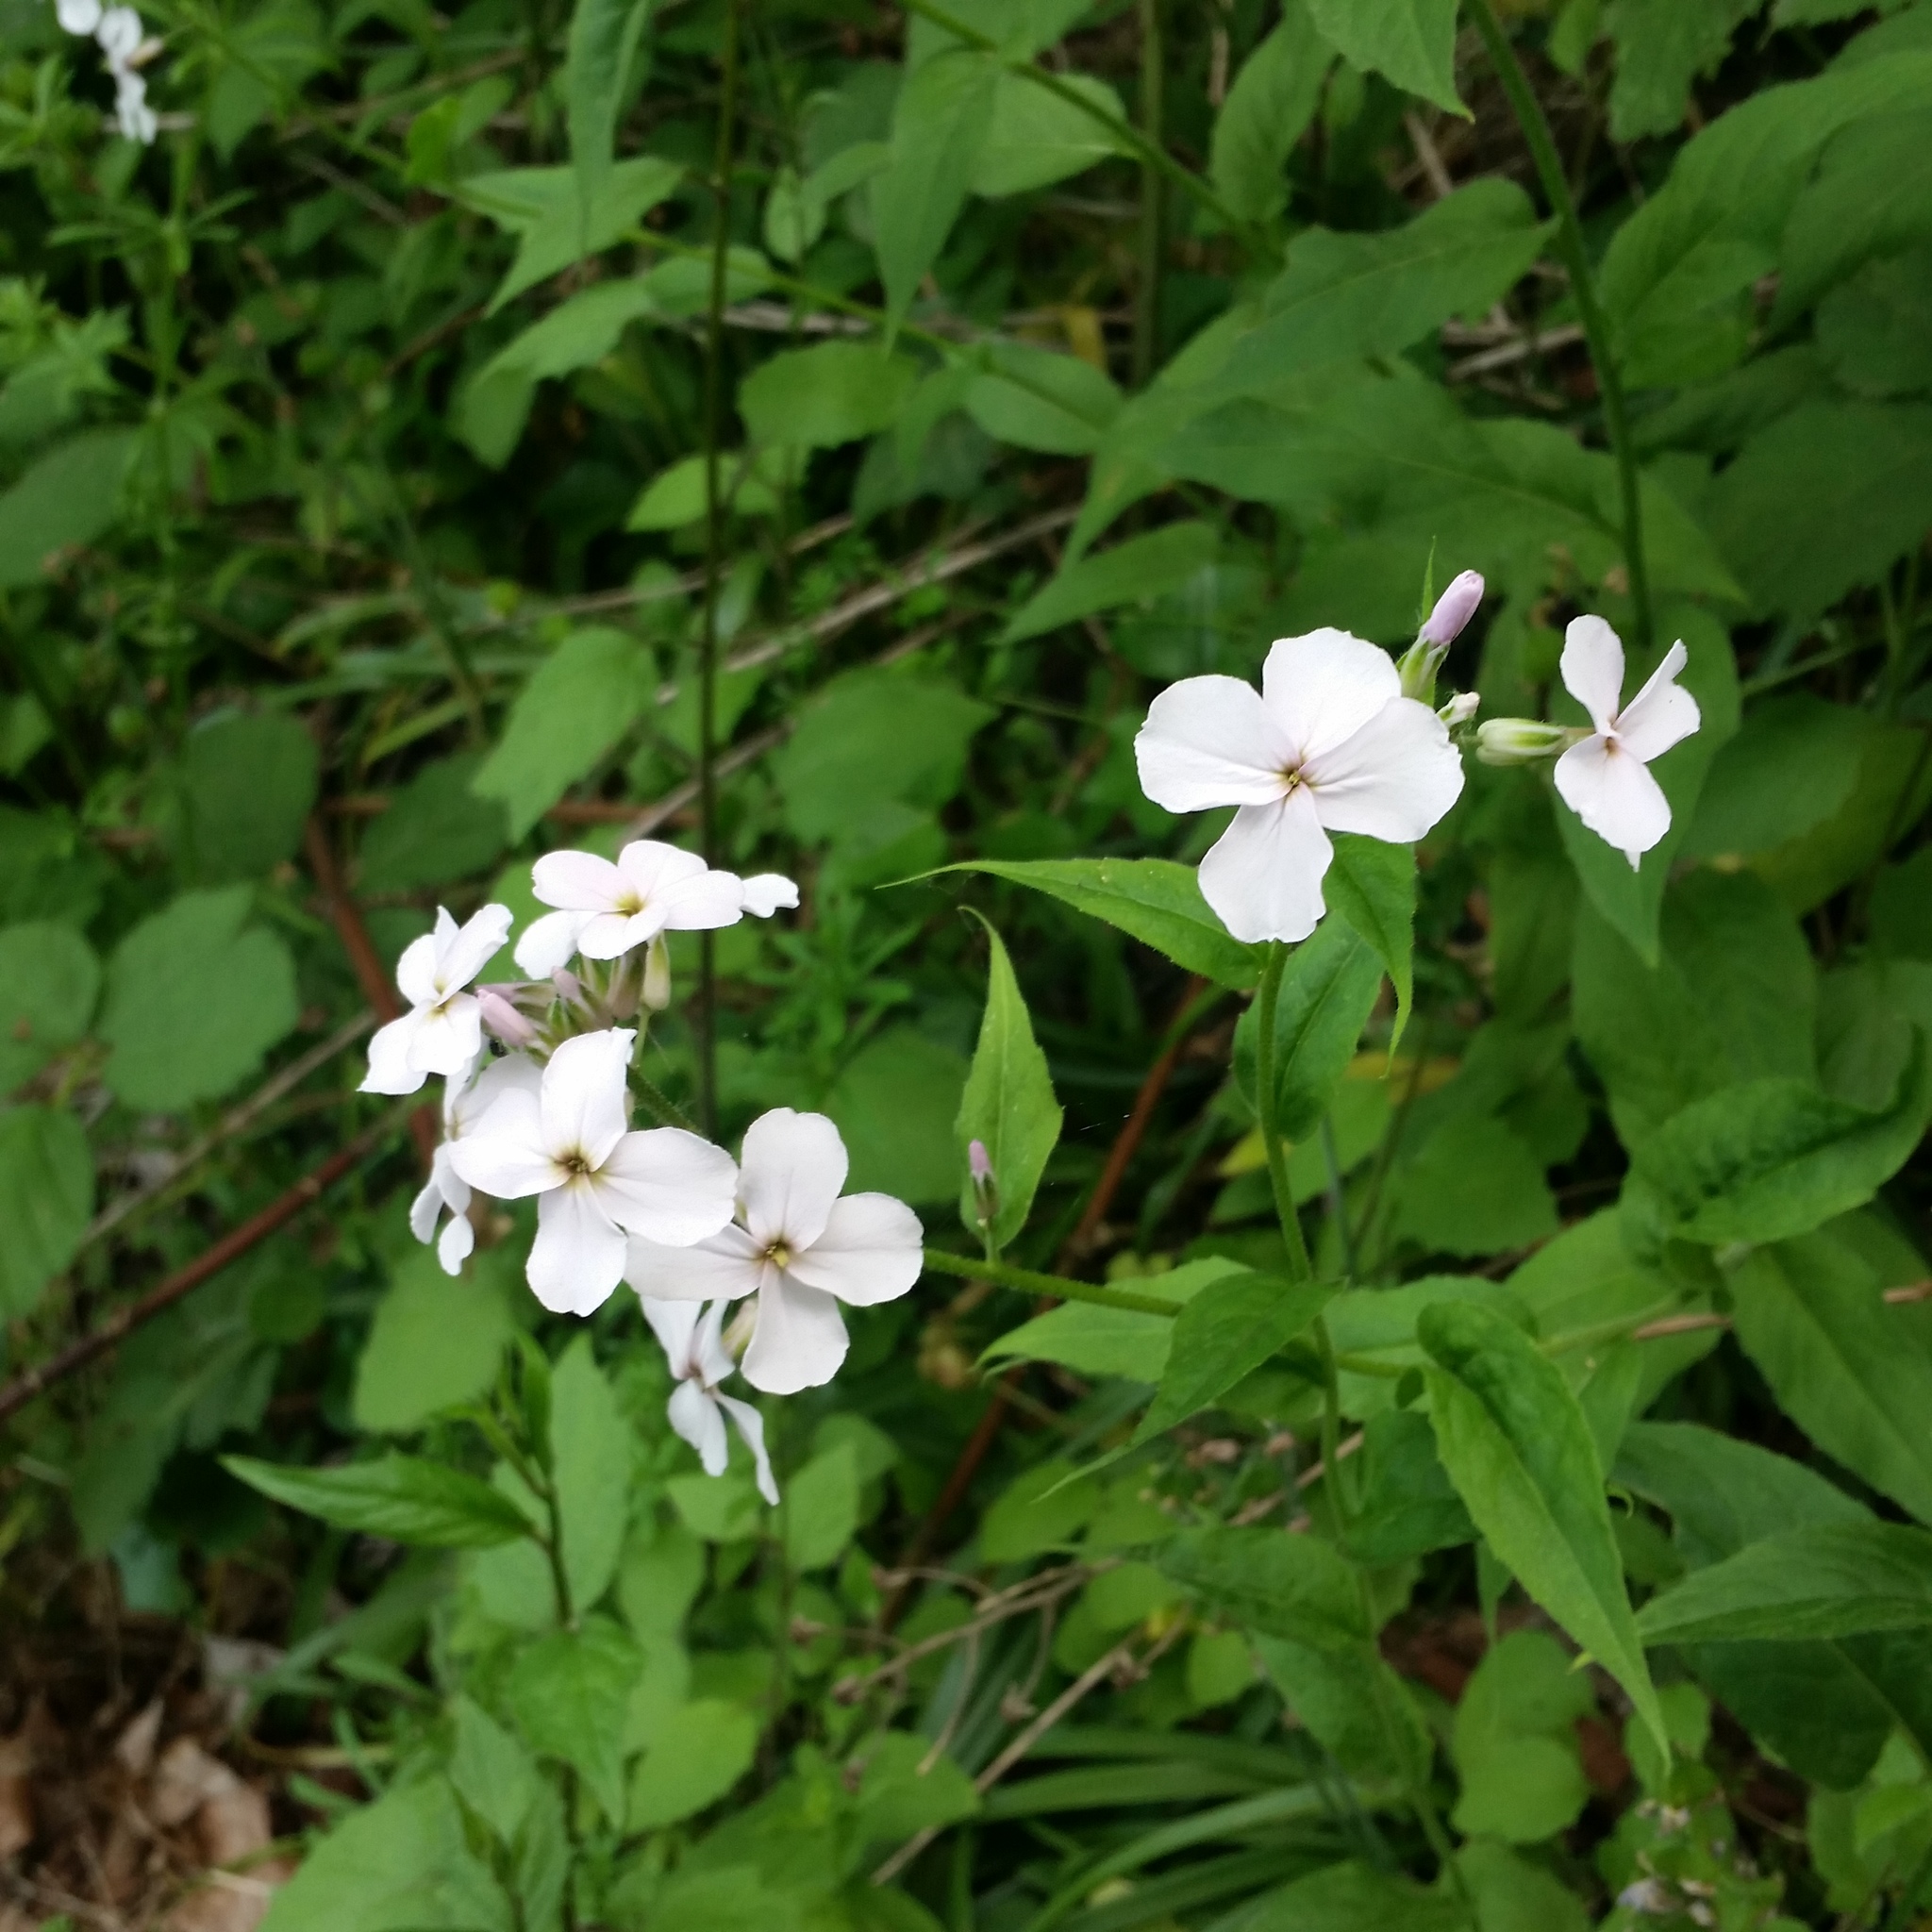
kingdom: Plantae
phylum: Tracheophyta
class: Magnoliopsida
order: Brassicales
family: Brassicaceae
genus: Hesperis
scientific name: Hesperis matronalis
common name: Dame's-violet
